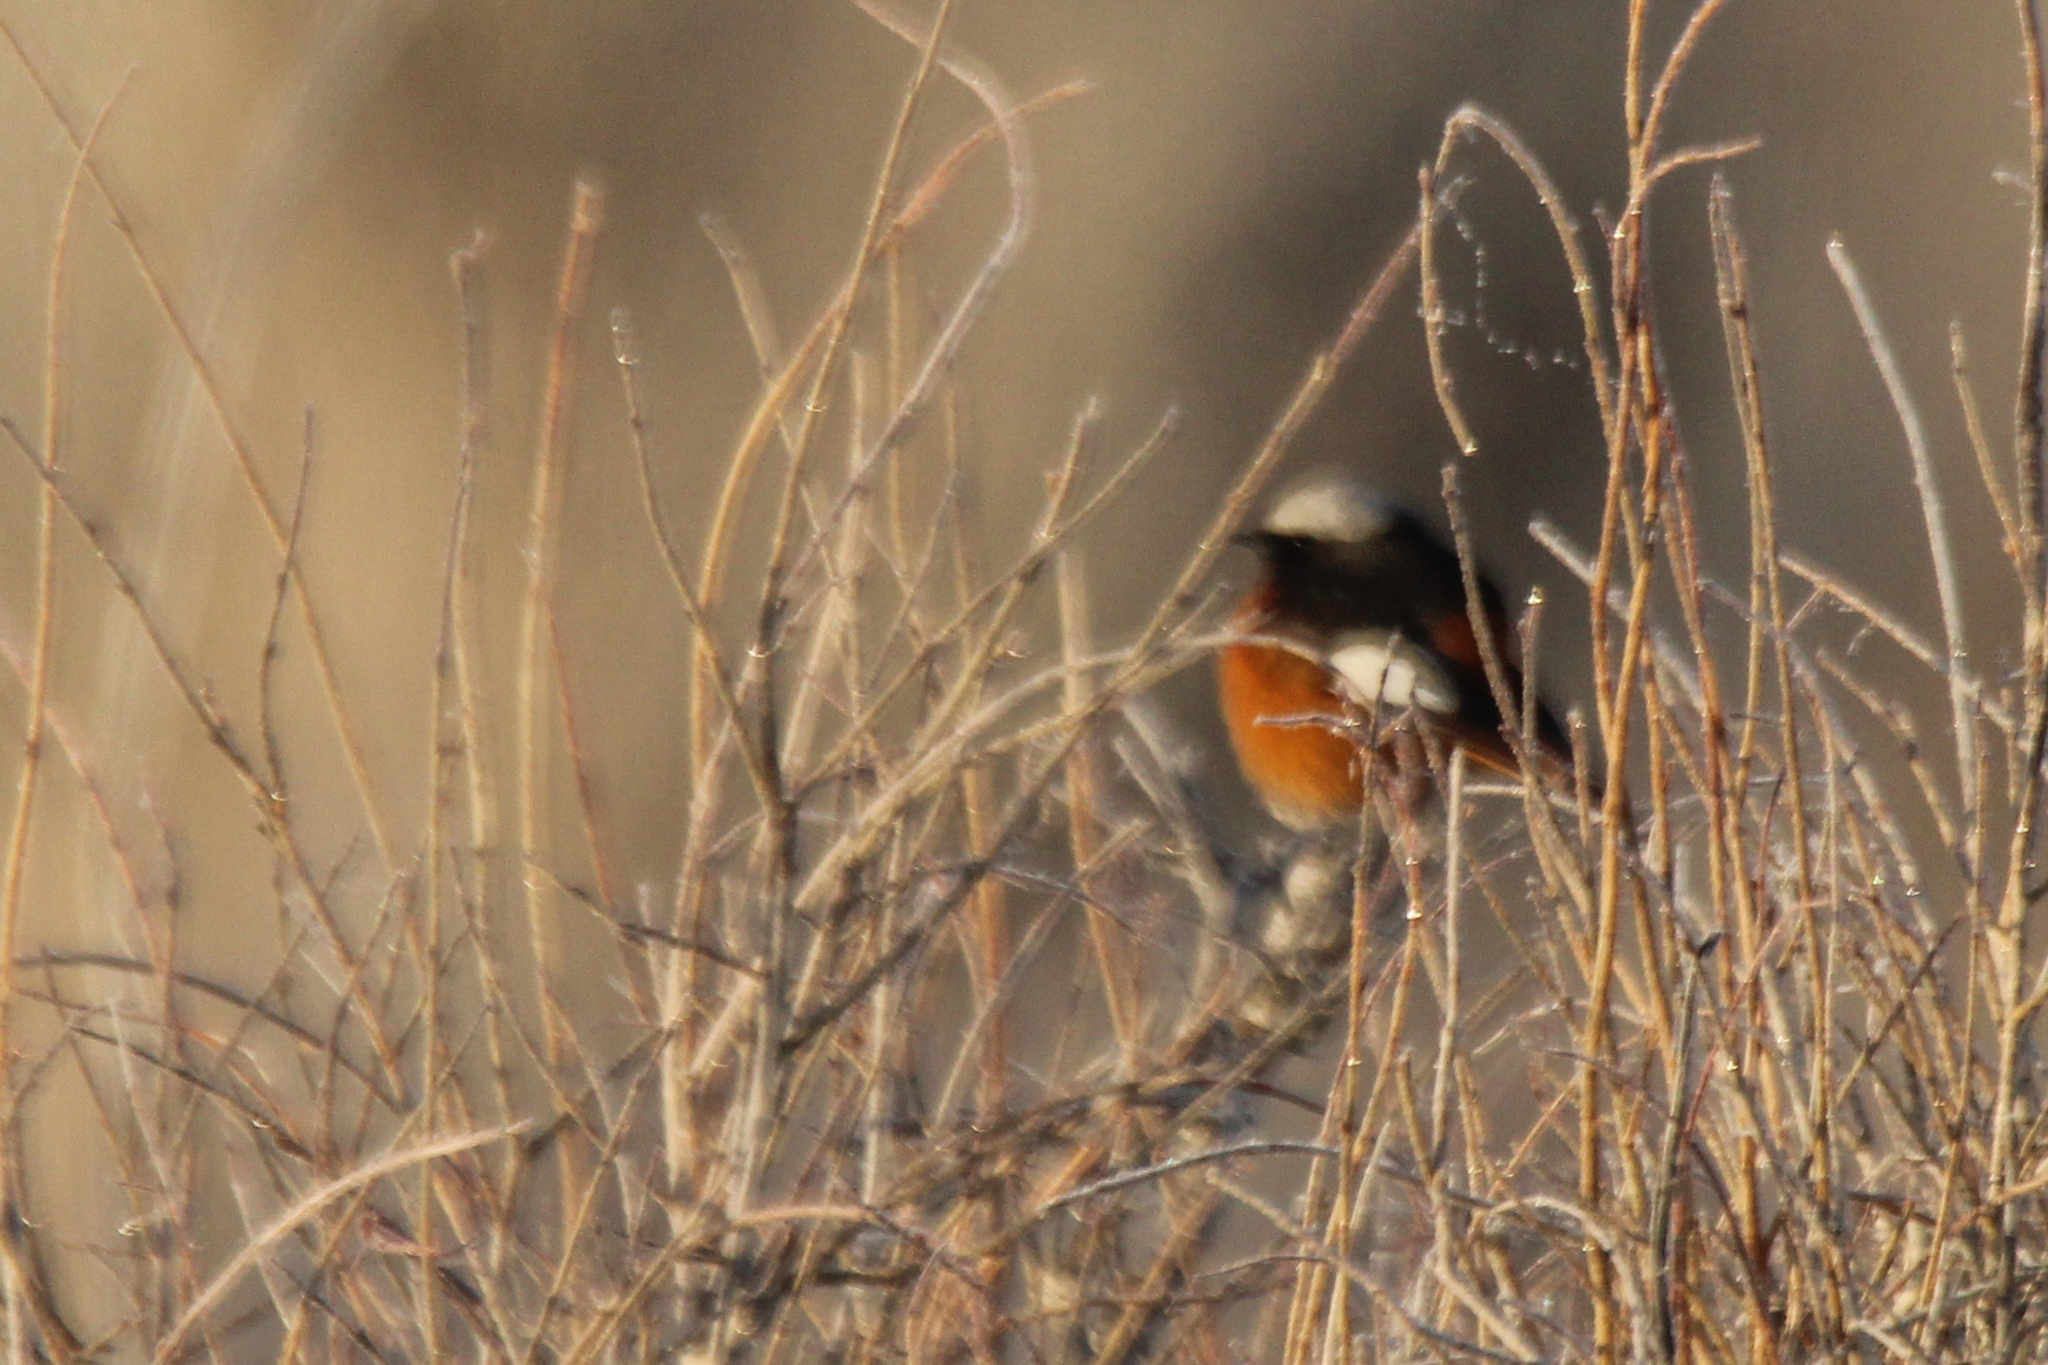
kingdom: Animalia
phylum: Chordata
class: Aves
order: Passeriformes
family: Muscicapidae
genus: Phoenicurus
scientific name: Phoenicurus erythrogastrus
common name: Güldenstädt's redstart
